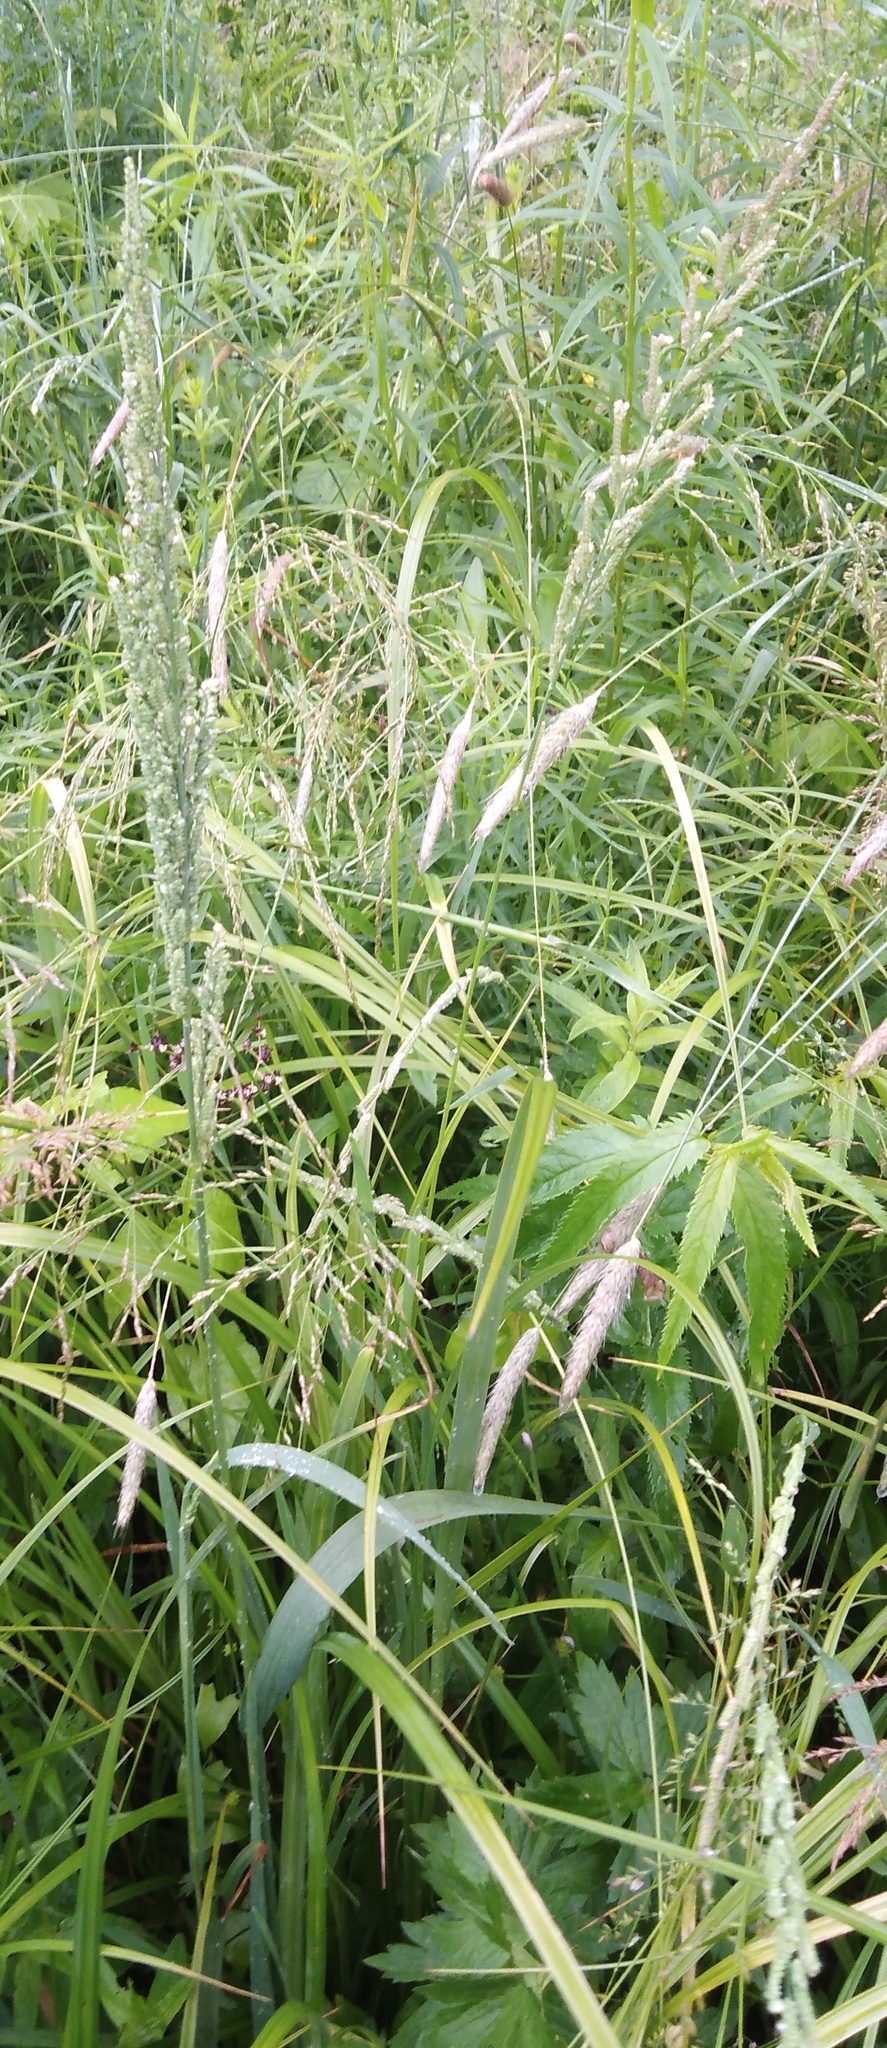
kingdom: Plantae
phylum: Tracheophyta
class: Liliopsida
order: Poales
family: Poaceae
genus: Beckmannia
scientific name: Beckmannia eruciformis
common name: European slough-grass
